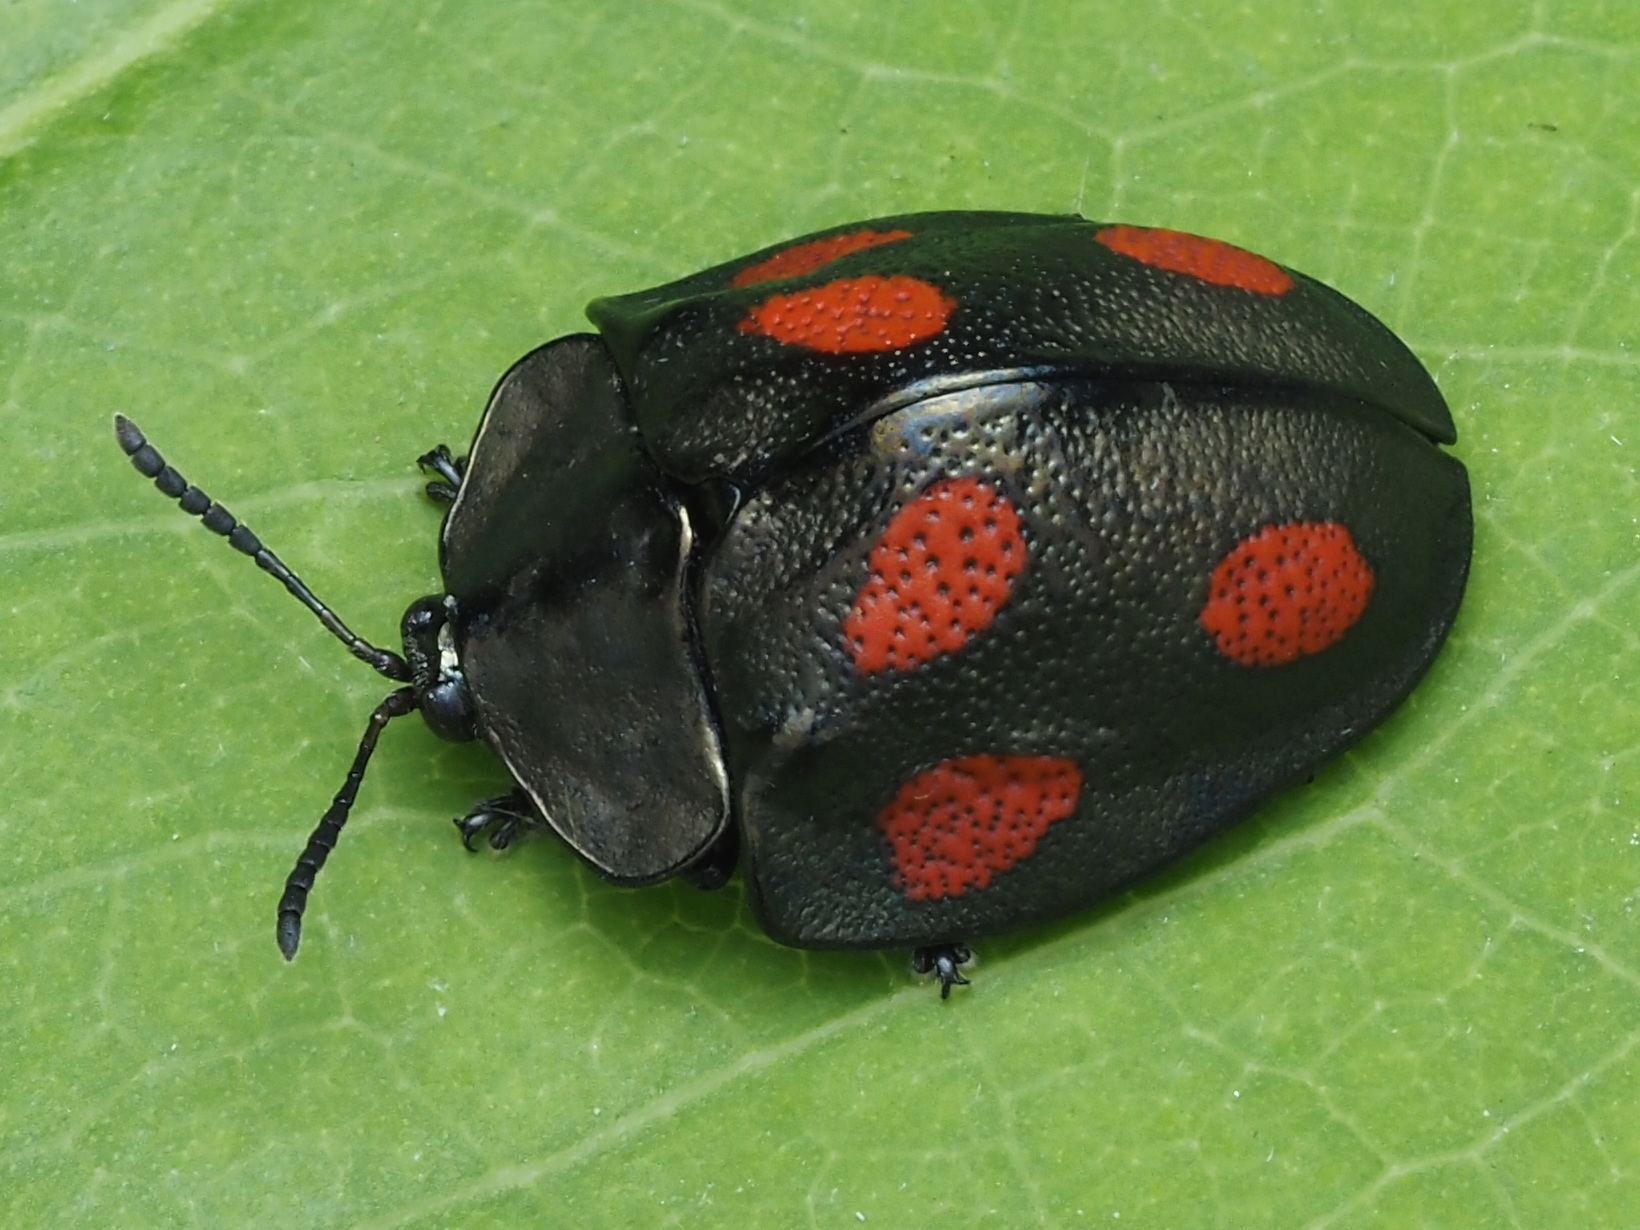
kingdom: Animalia
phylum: Arthropoda
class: Insecta
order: Coleoptera
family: Chrysomelidae
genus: Cyrtonota
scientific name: Cyrtonota tristigma
